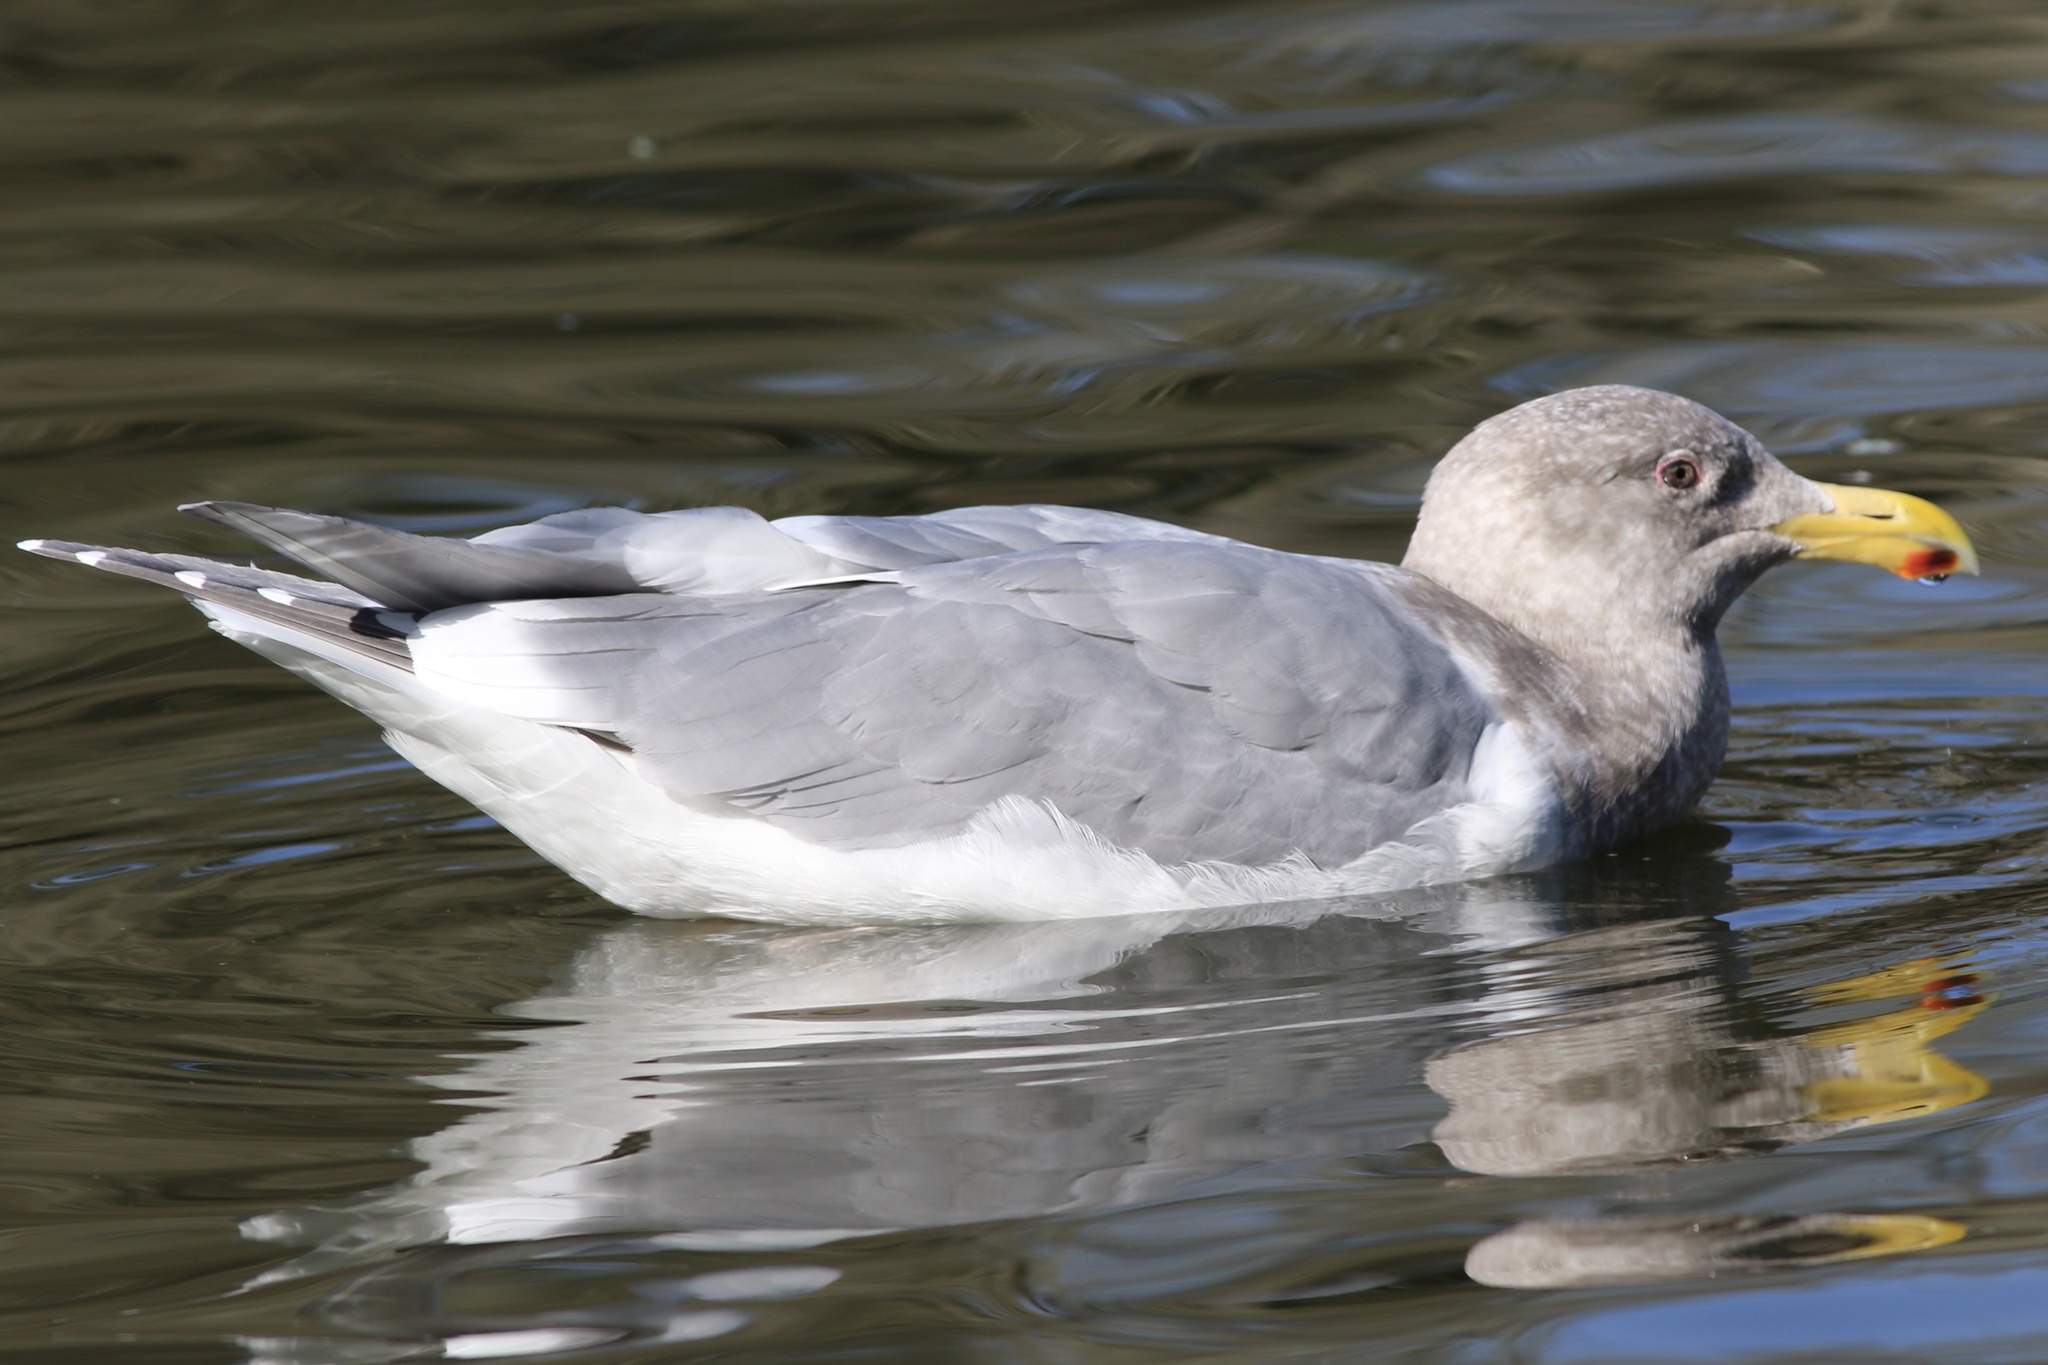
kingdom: Animalia
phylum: Chordata
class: Aves
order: Charadriiformes
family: Laridae
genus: Larus
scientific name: Larus glaucescens
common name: Glaucous-winged gull
